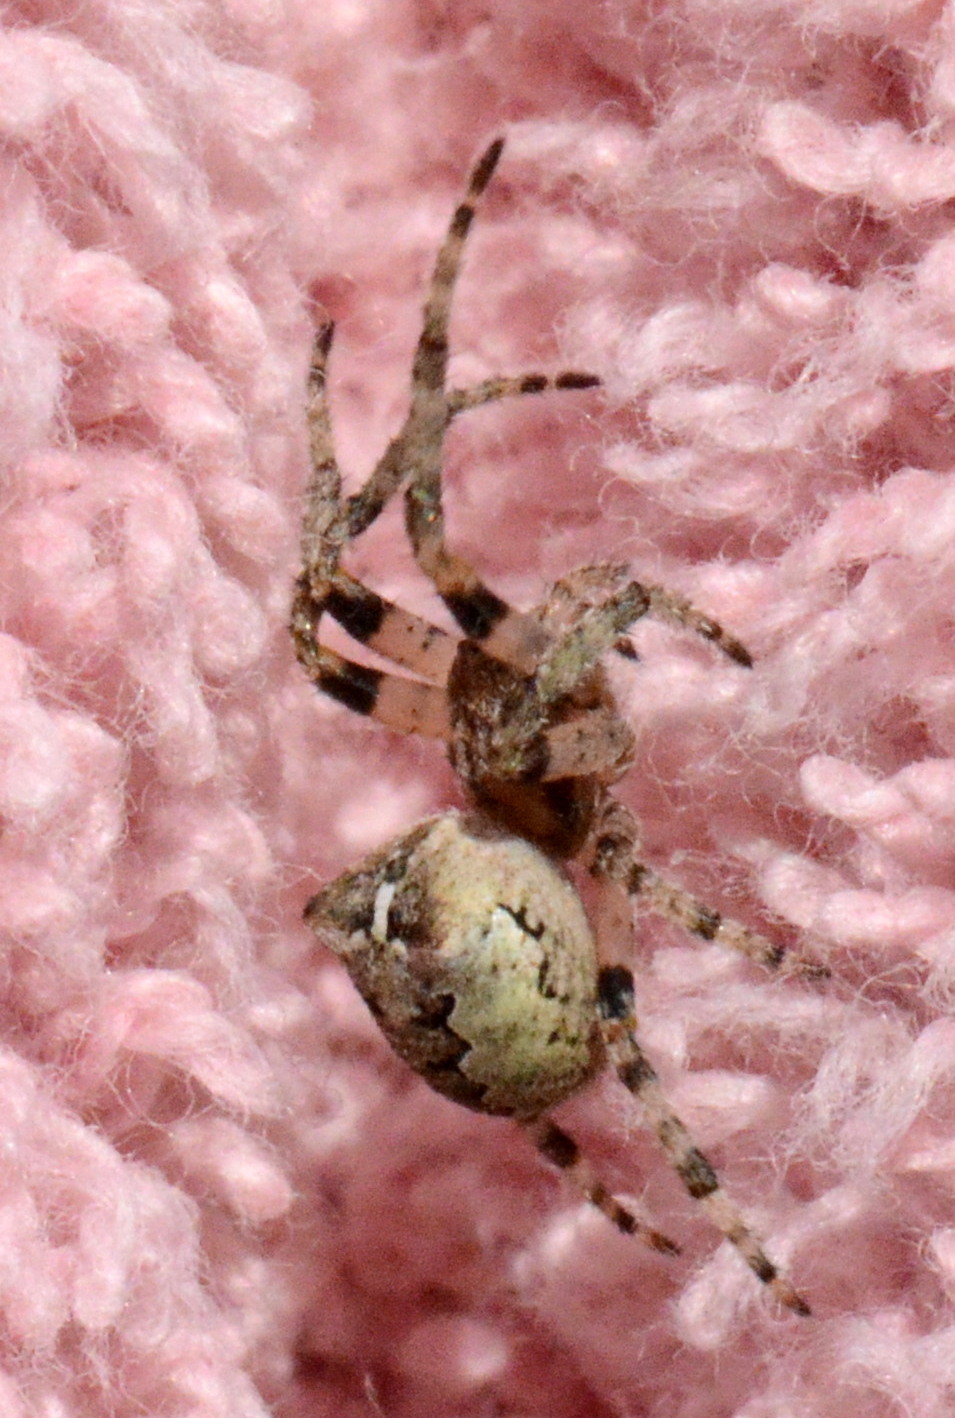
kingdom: Animalia
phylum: Arthropoda
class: Arachnida
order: Araneae
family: Araneidae
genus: Araneus
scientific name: Araneus bicentenarius
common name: Giant lichen orbweaver
